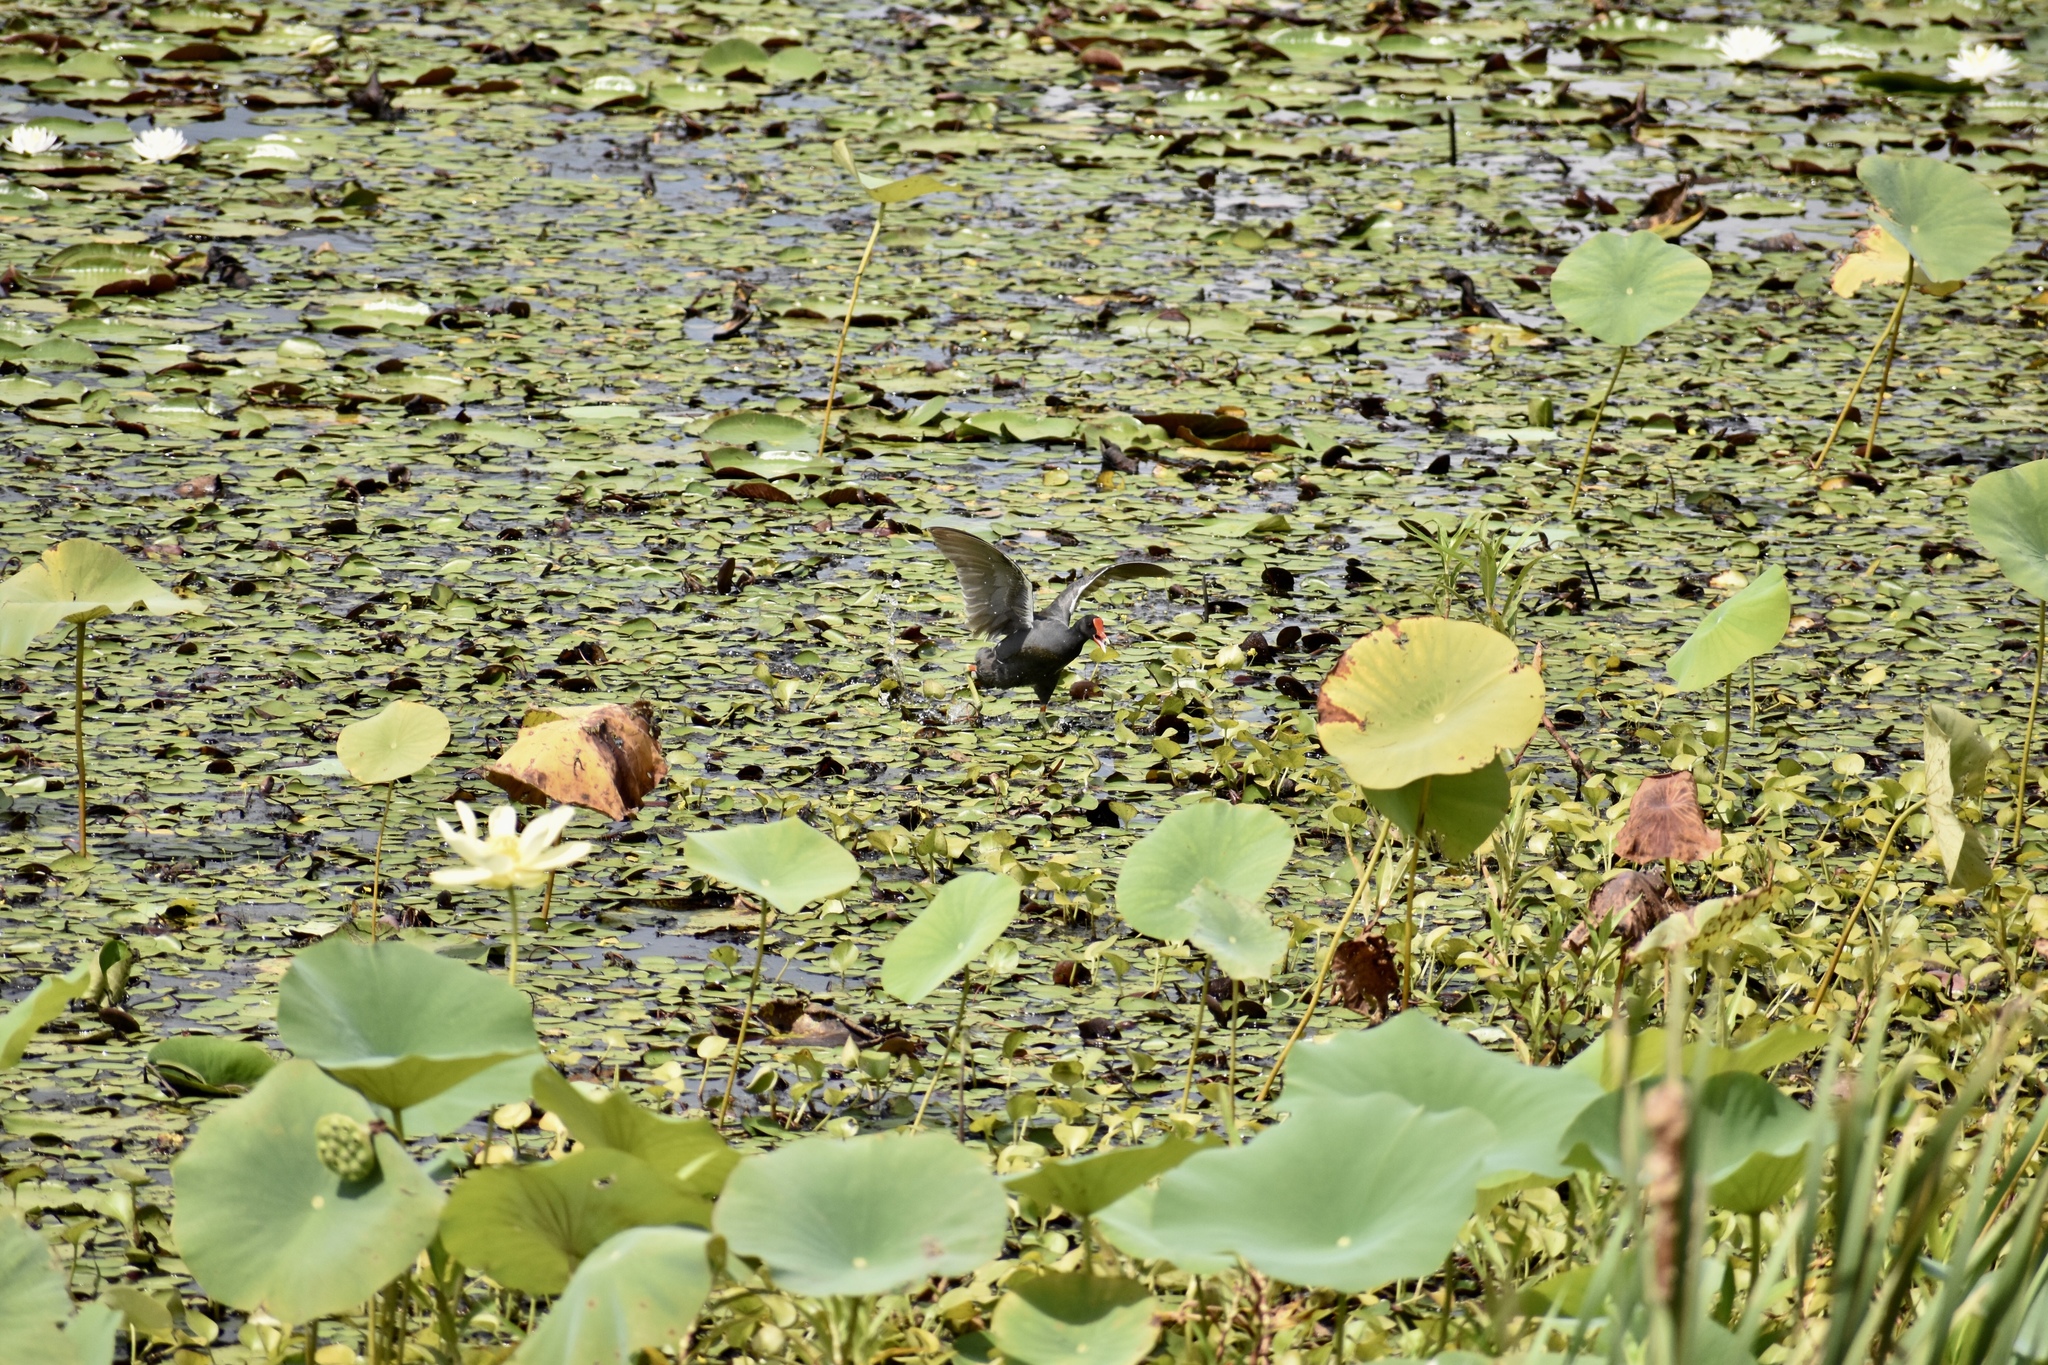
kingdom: Animalia
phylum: Chordata
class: Aves
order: Gruiformes
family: Rallidae
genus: Gallinula
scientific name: Gallinula chloropus
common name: Common moorhen
